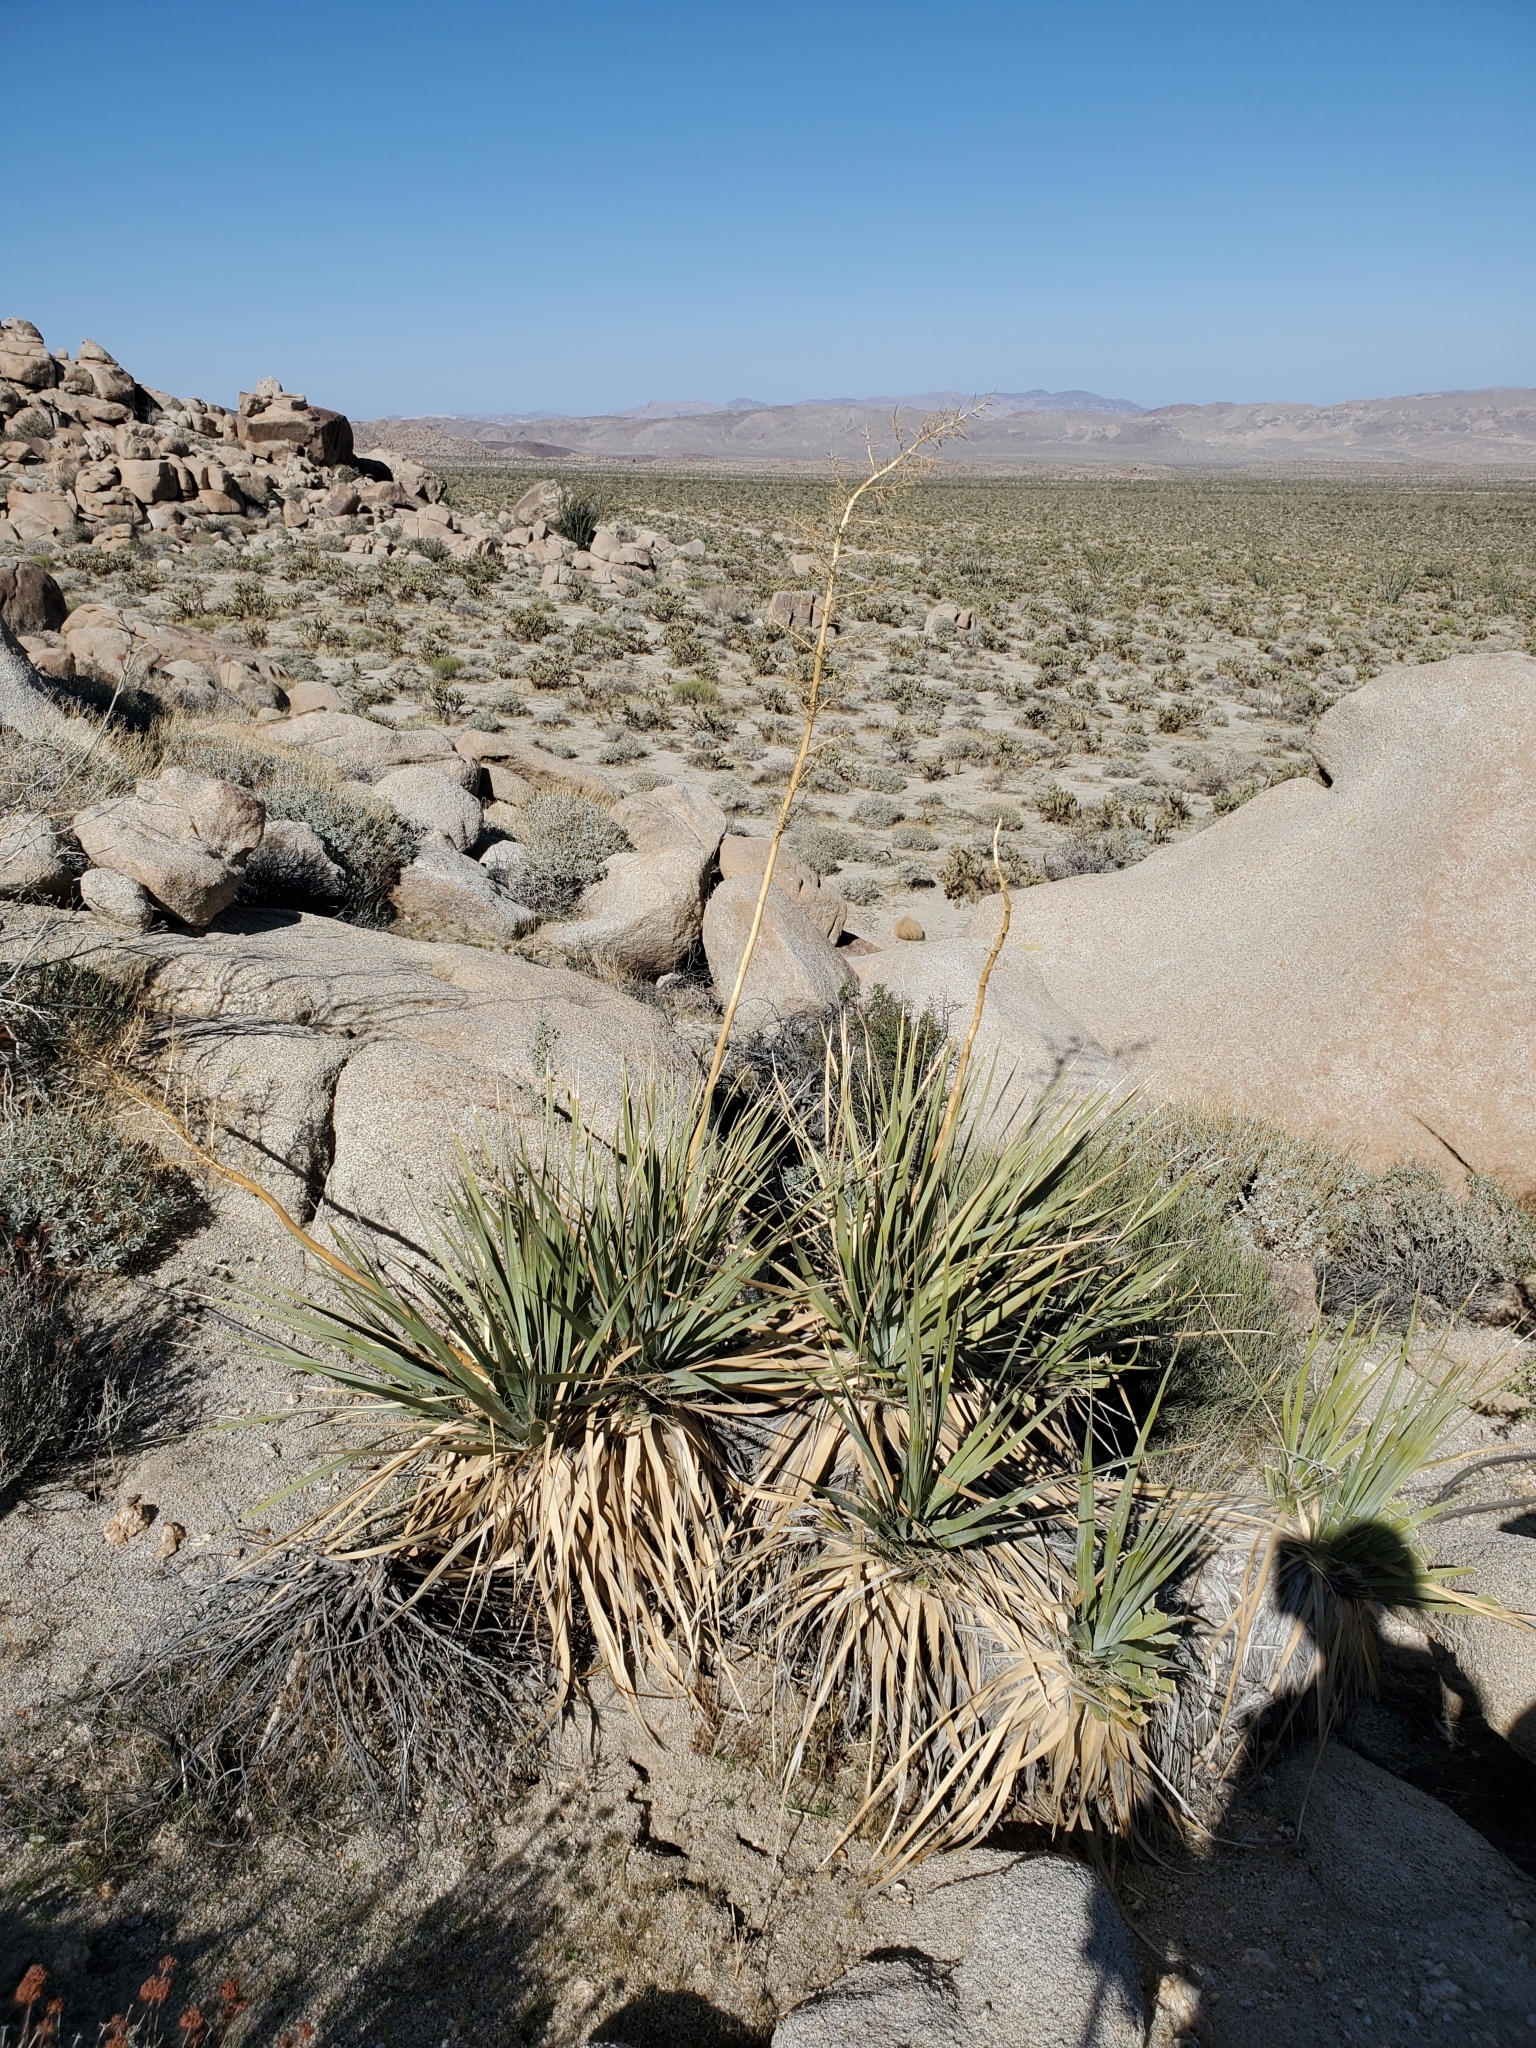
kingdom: Plantae
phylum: Tracheophyta
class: Liliopsida
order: Asparagales
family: Asparagaceae
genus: Nolina
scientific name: Nolina bigelovii
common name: Bigelow bear-grass
